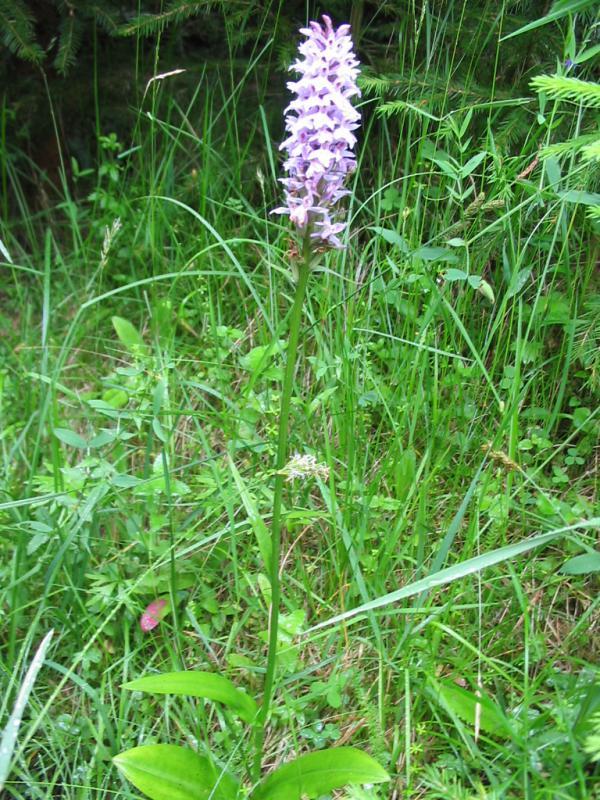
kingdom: Plantae
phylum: Tracheophyta
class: Liliopsida
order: Asparagales
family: Orchidaceae
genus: Dactylorhiza
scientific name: Dactylorhiza maculata
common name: Heath spotted-orchid
